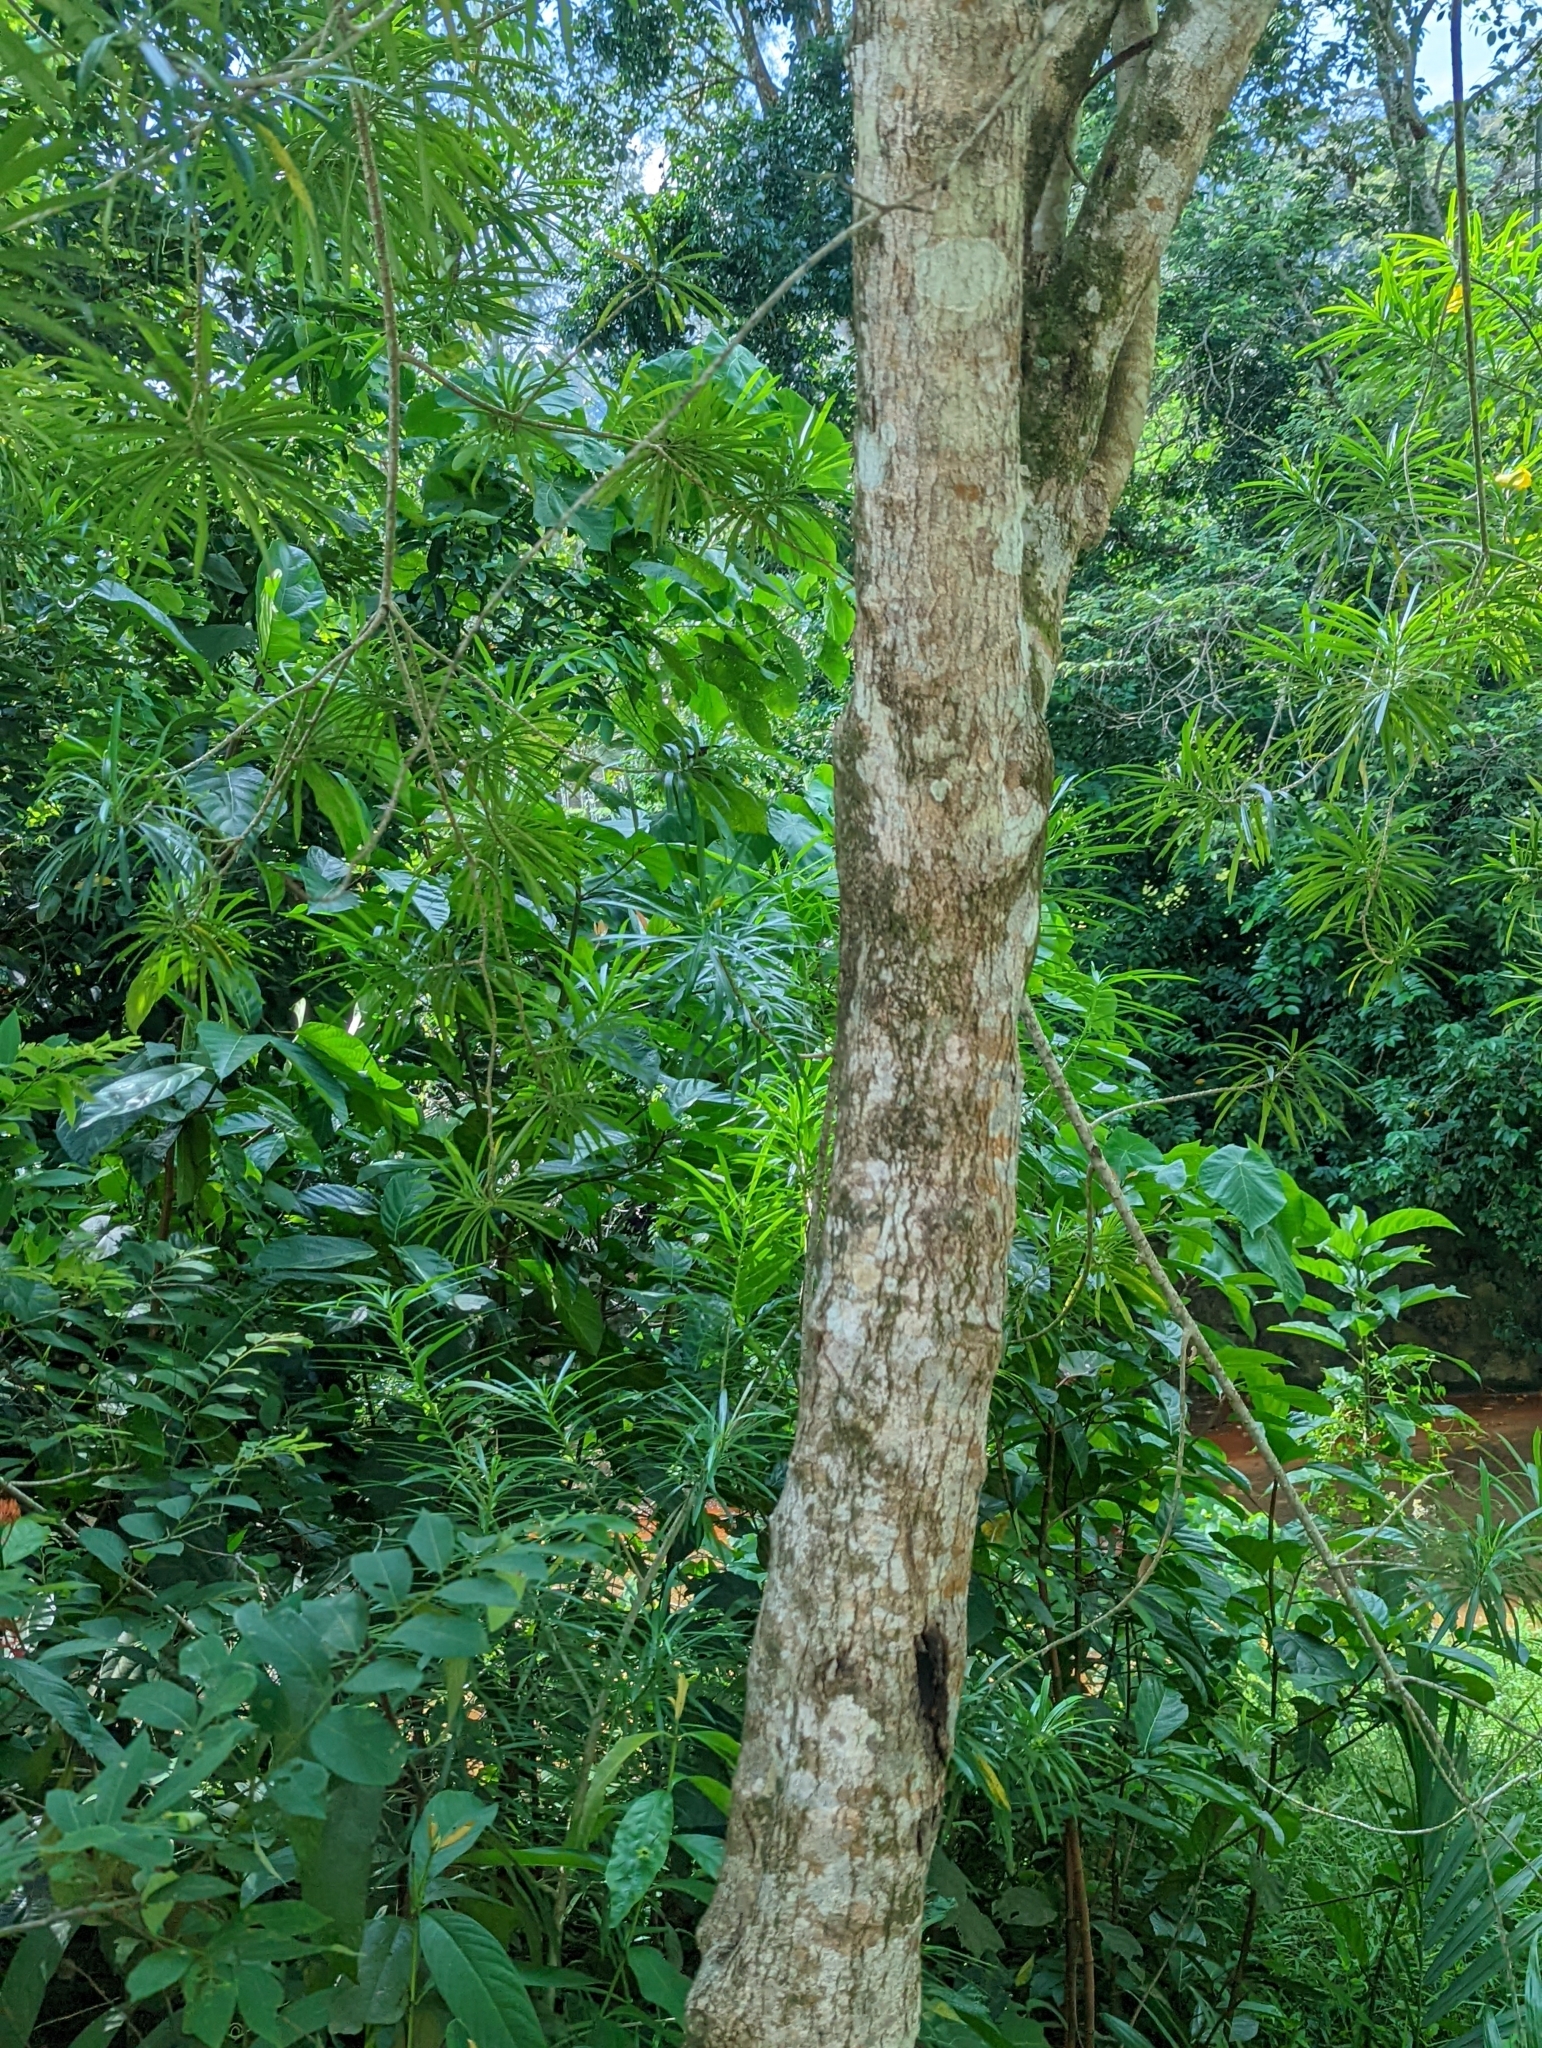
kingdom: Plantae
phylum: Tracheophyta
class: Magnoliopsida
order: Gentianales
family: Apocynaceae
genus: Cascabela
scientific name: Cascabela thevetia
